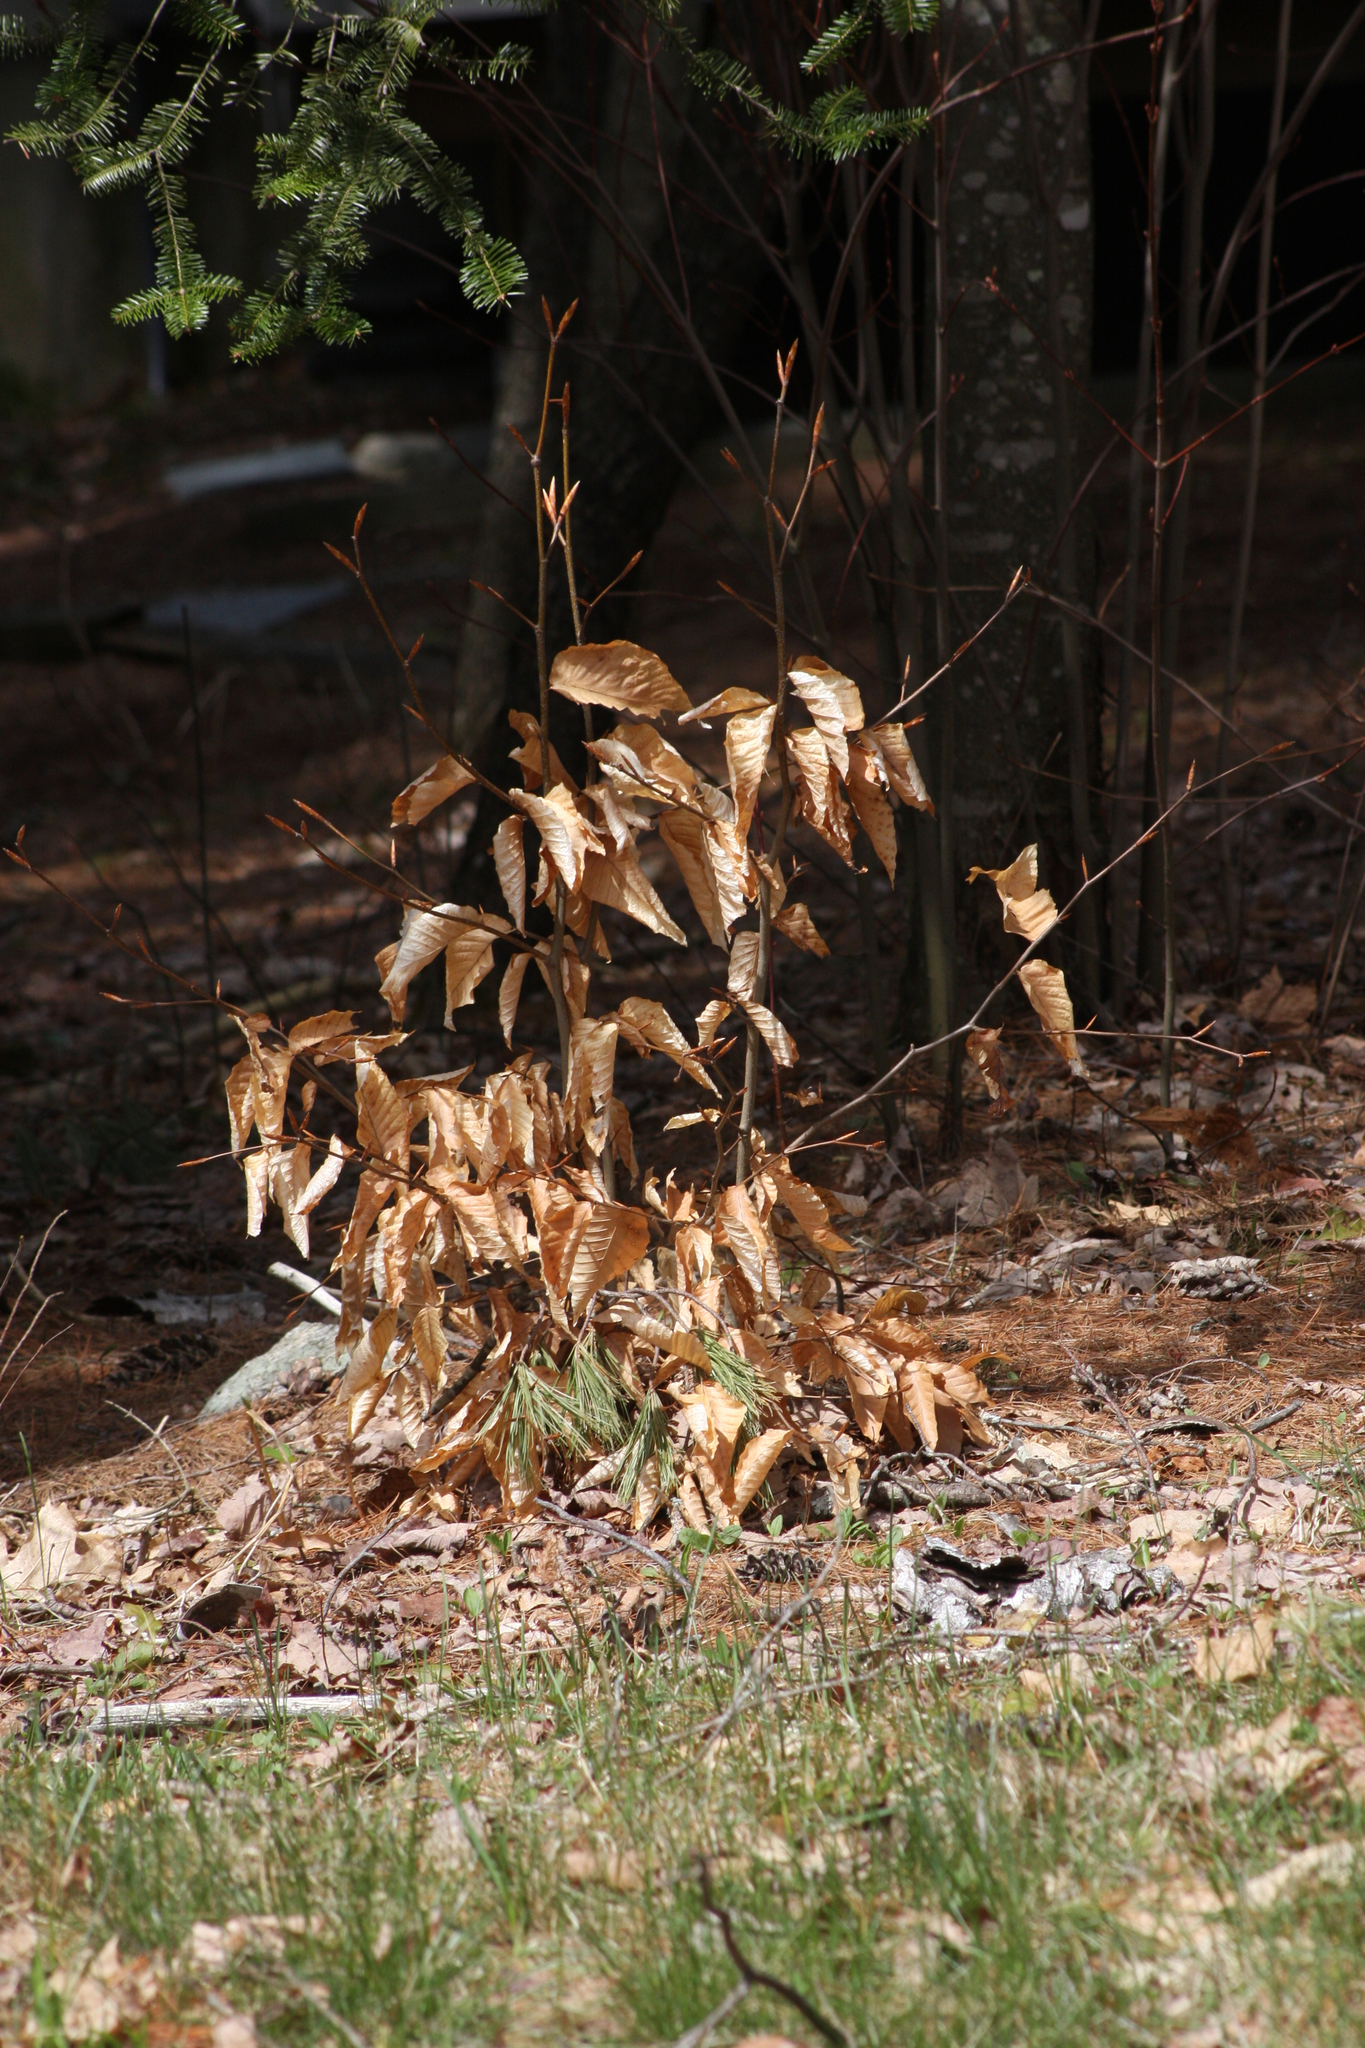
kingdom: Plantae
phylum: Tracheophyta
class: Magnoliopsida
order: Fagales
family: Fagaceae
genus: Fagus
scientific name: Fagus grandifolia
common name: American beech
